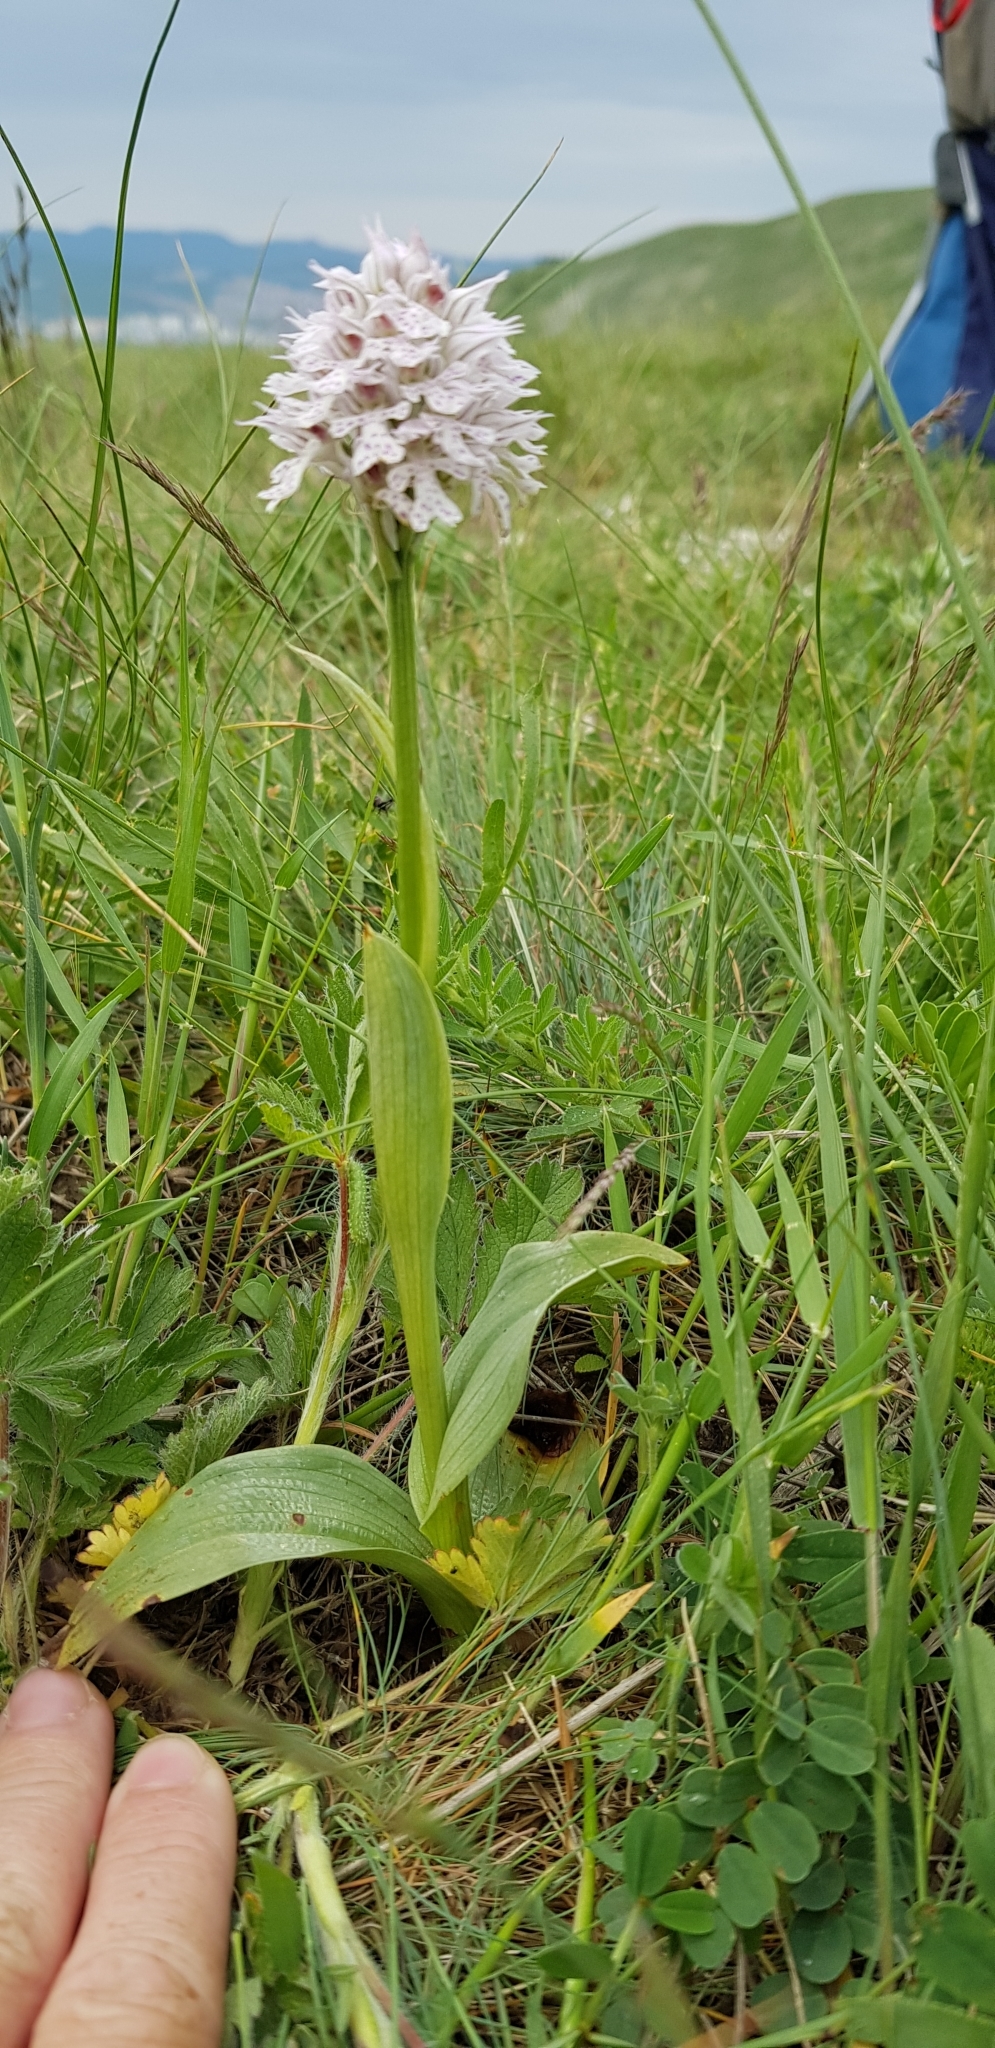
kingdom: Plantae
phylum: Tracheophyta
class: Liliopsida
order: Asparagales
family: Orchidaceae
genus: Neotinea
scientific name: Neotinea tridentata
